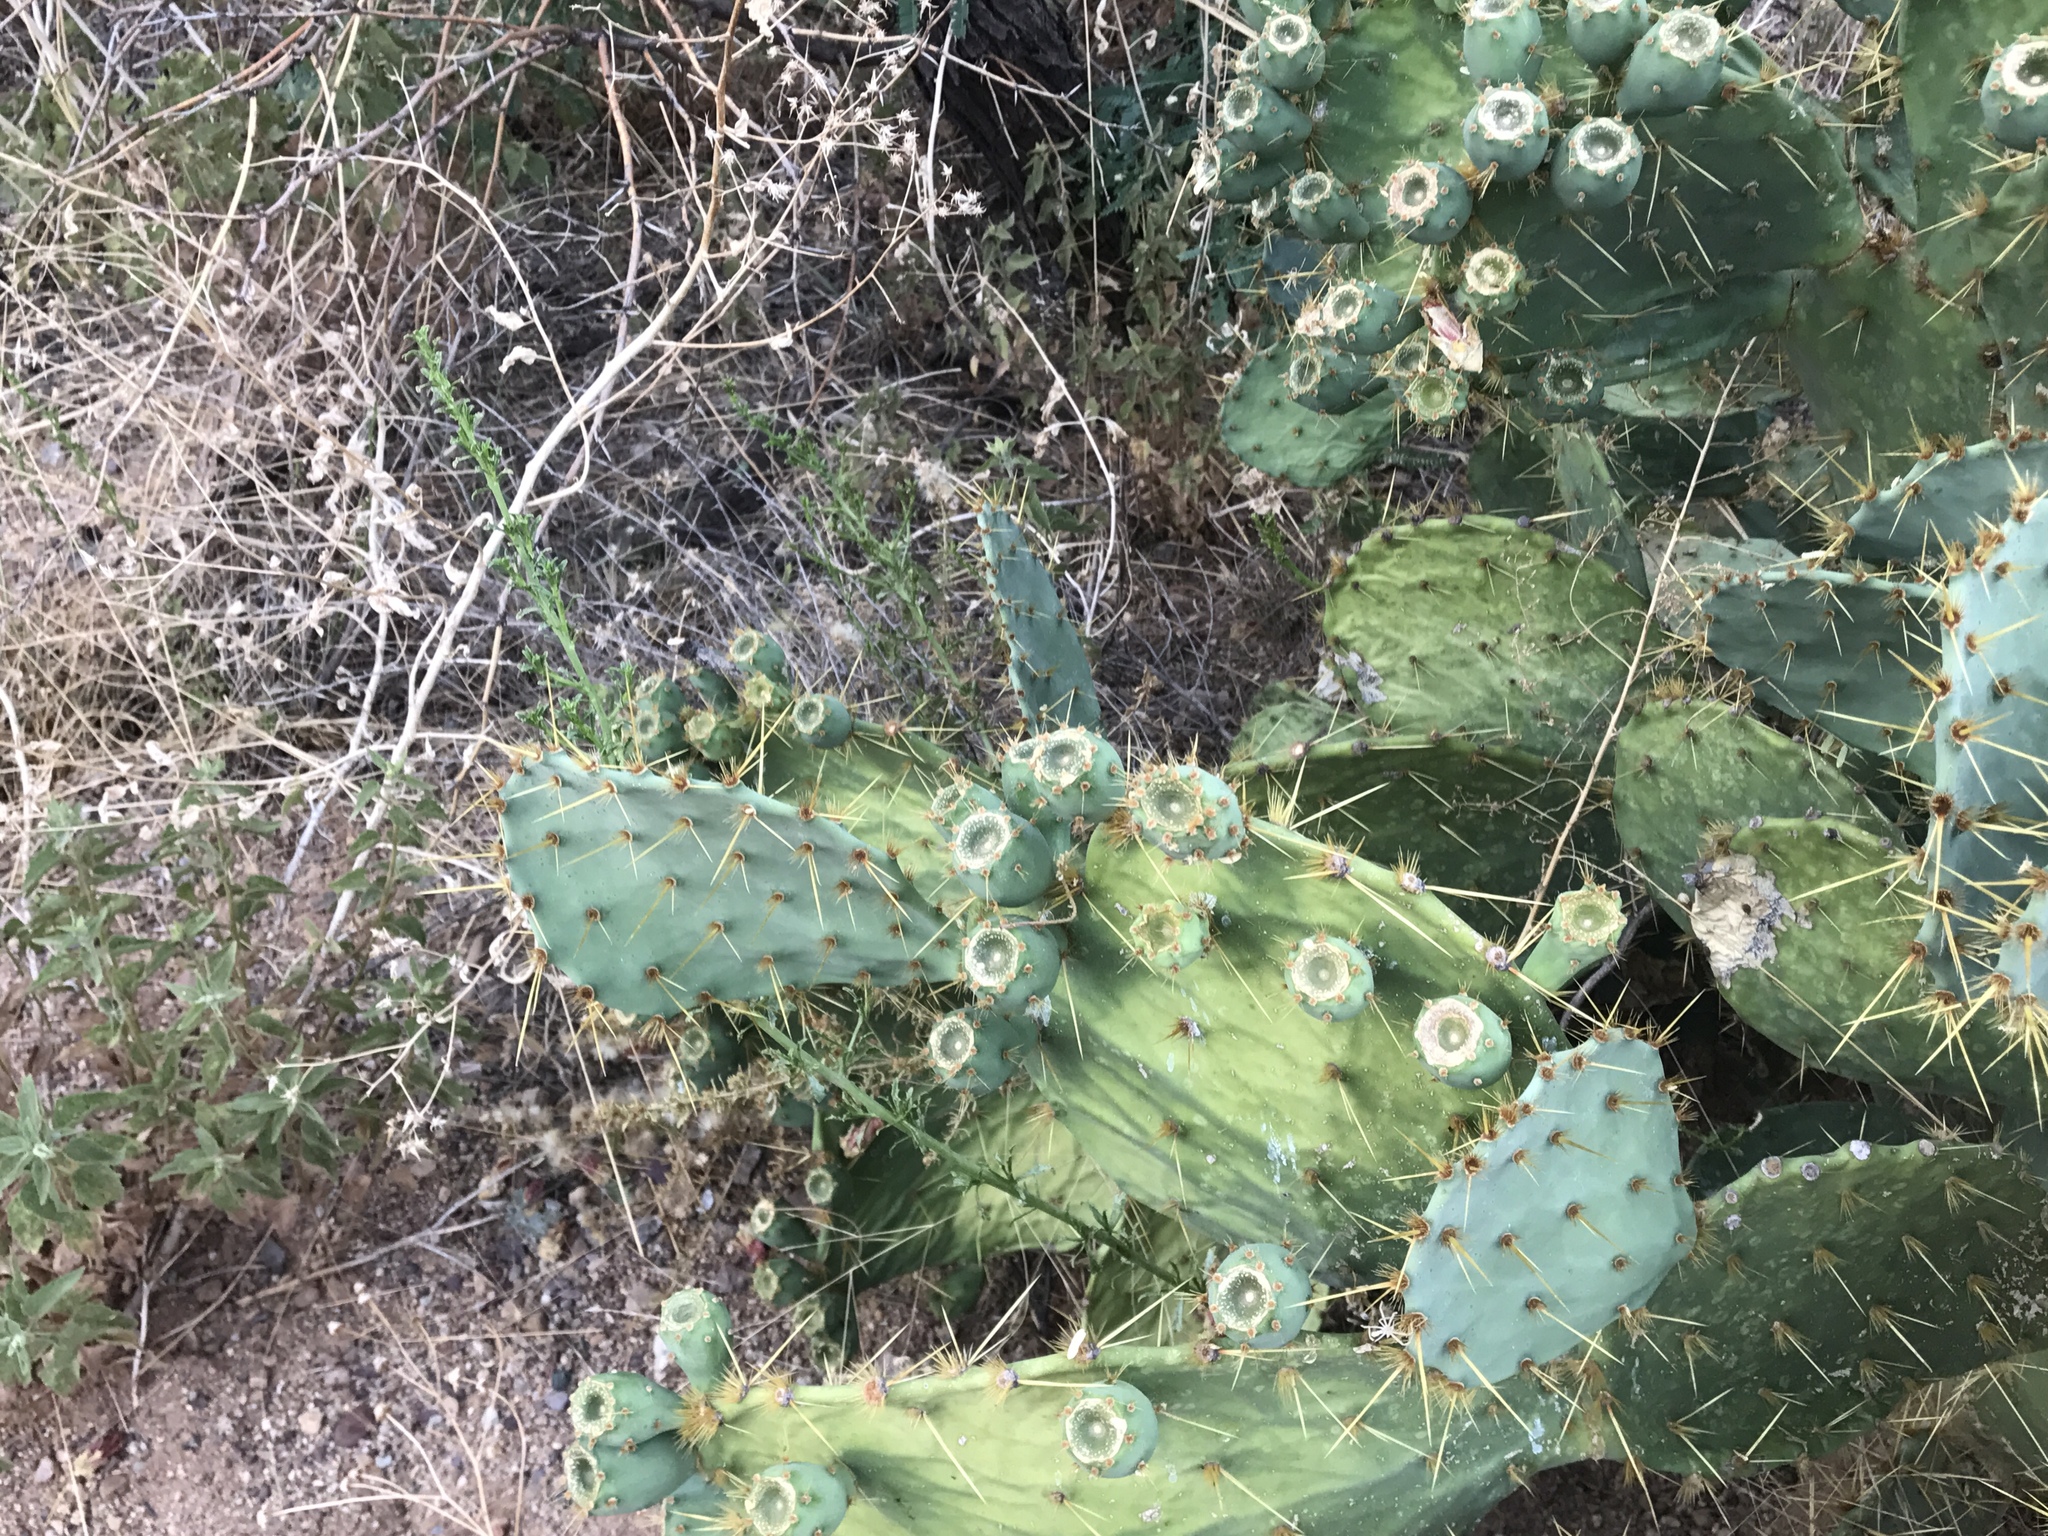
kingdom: Plantae
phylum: Tracheophyta
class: Magnoliopsida
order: Caryophyllales
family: Cactaceae
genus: Opuntia
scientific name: Opuntia engelmannii
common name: Cactus-apple
